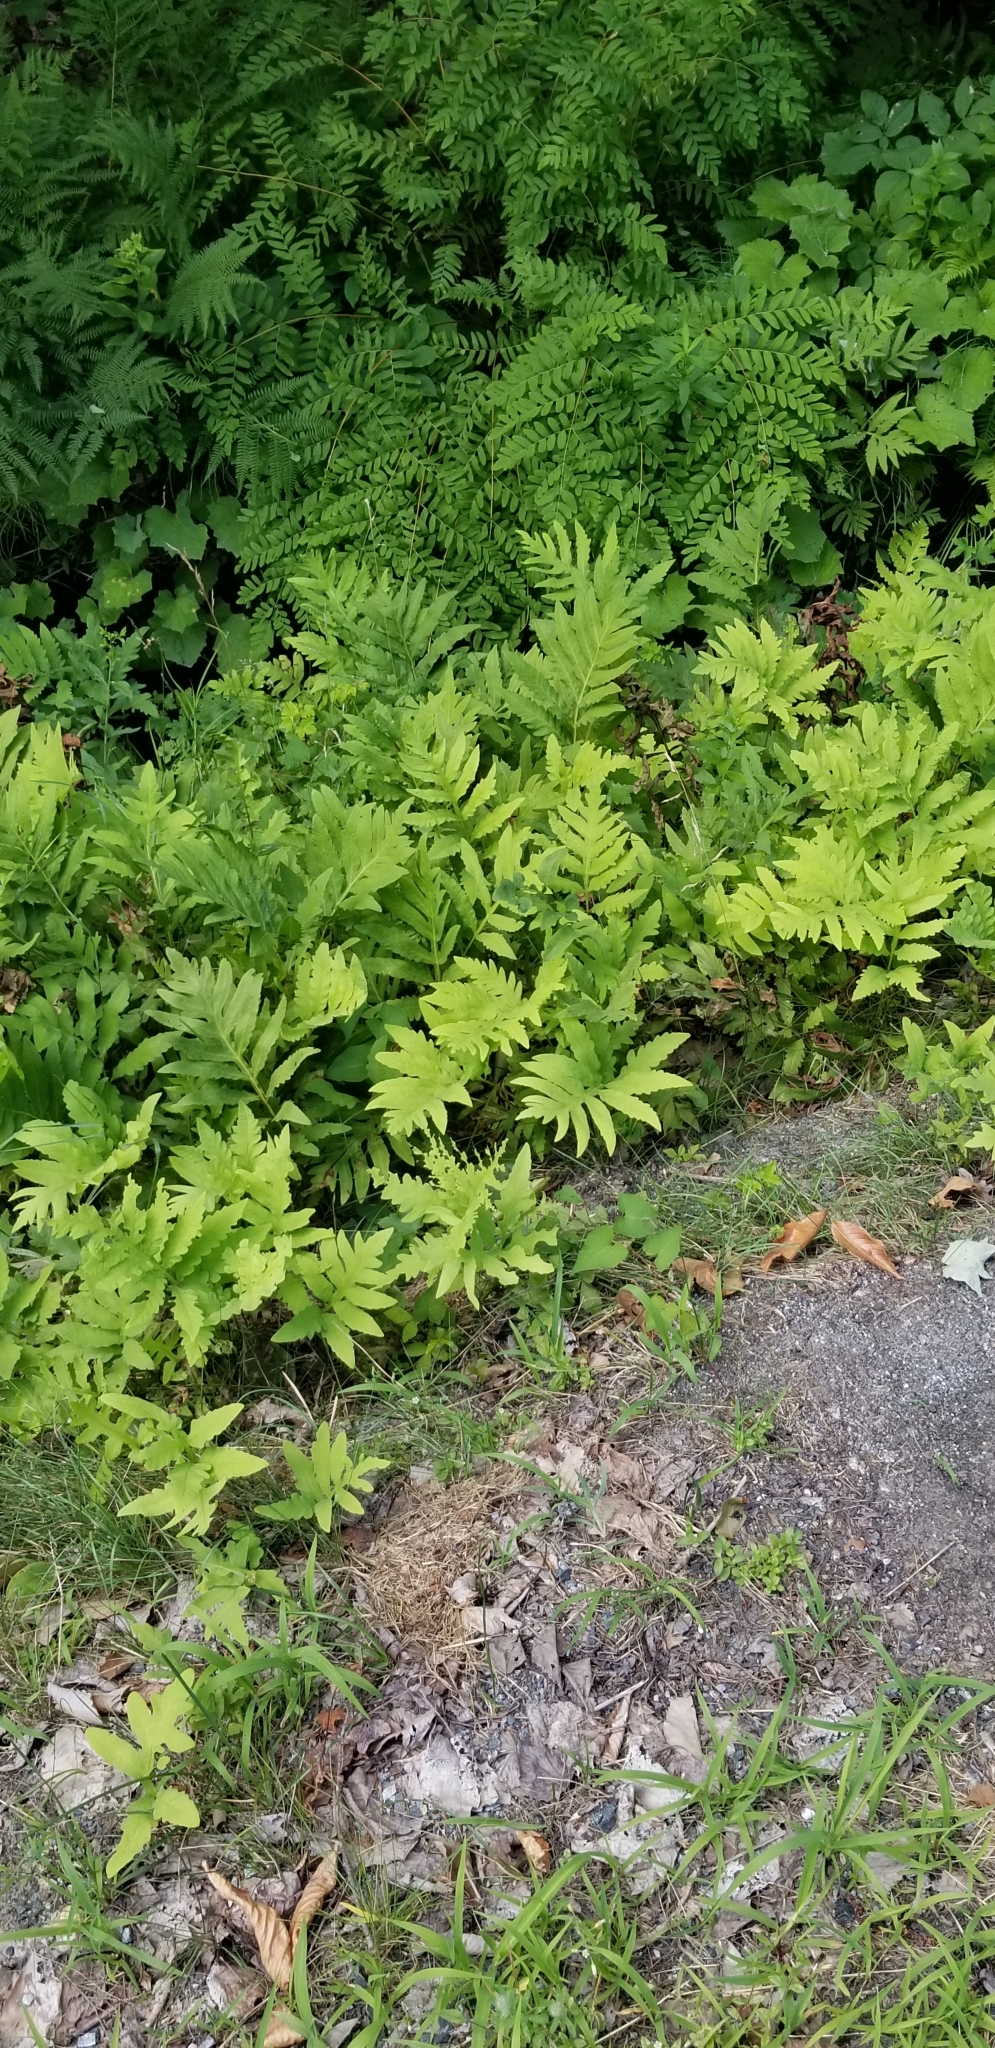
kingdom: Plantae
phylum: Tracheophyta
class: Polypodiopsida
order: Polypodiales
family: Onocleaceae
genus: Onoclea
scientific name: Onoclea sensibilis
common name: Sensitive fern
